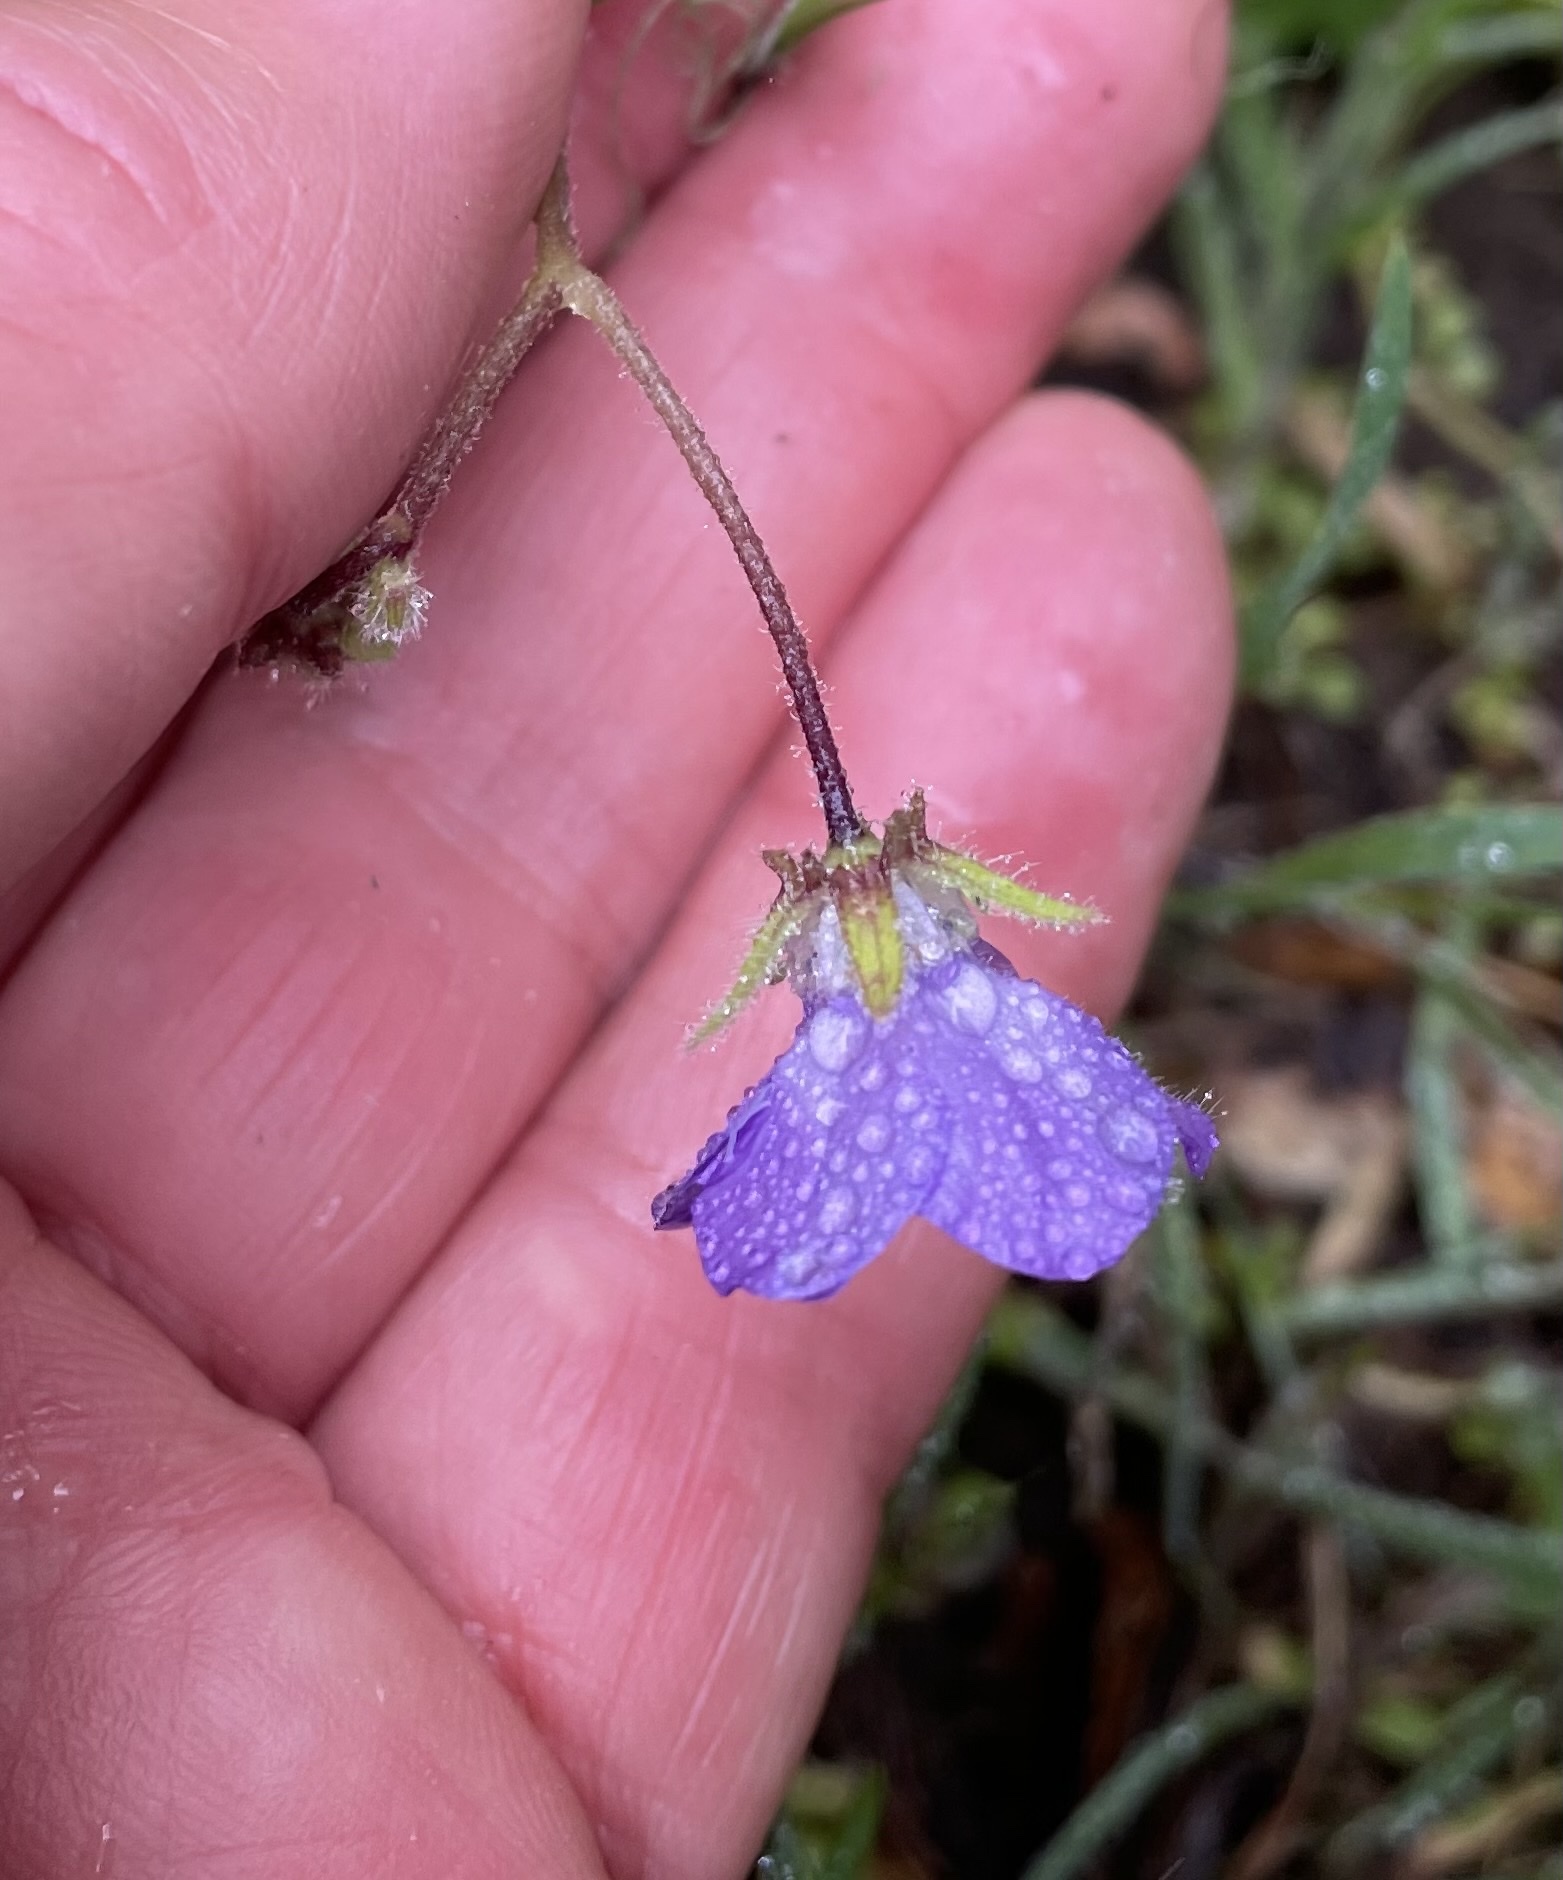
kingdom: Plantae
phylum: Tracheophyta
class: Magnoliopsida
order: Boraginales
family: Hydrophyllaceae
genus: Pholistoma
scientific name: Pholistoma auritum
